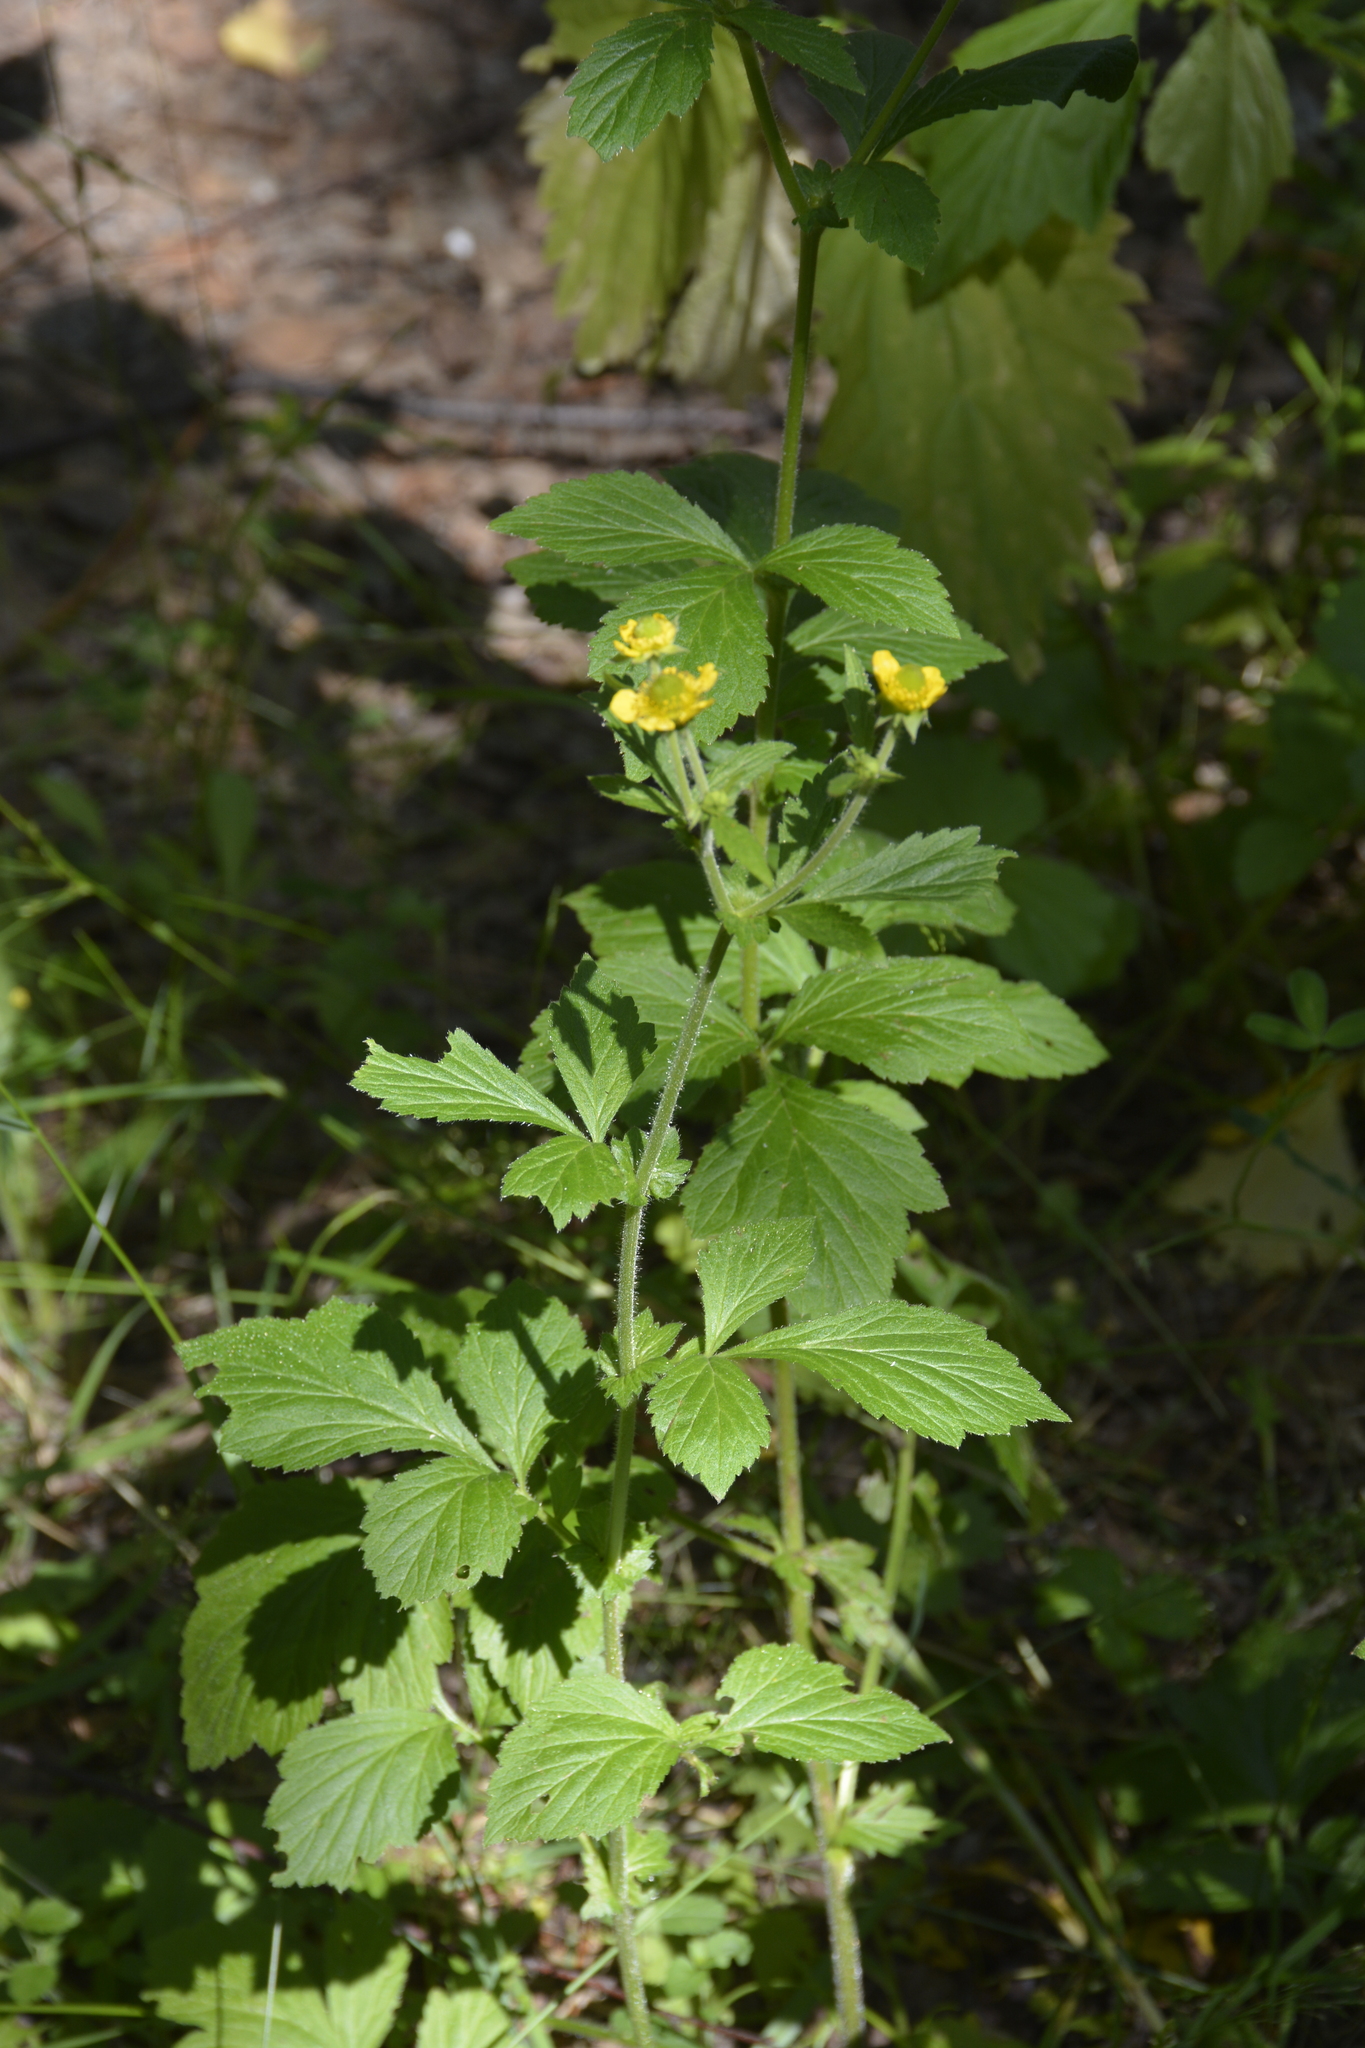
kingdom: Plantae
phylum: Tracheophyta
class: Magnoliopsida
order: Rosales
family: Rosaceae
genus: Geum
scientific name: Geum aleppicum
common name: Yellow avens
